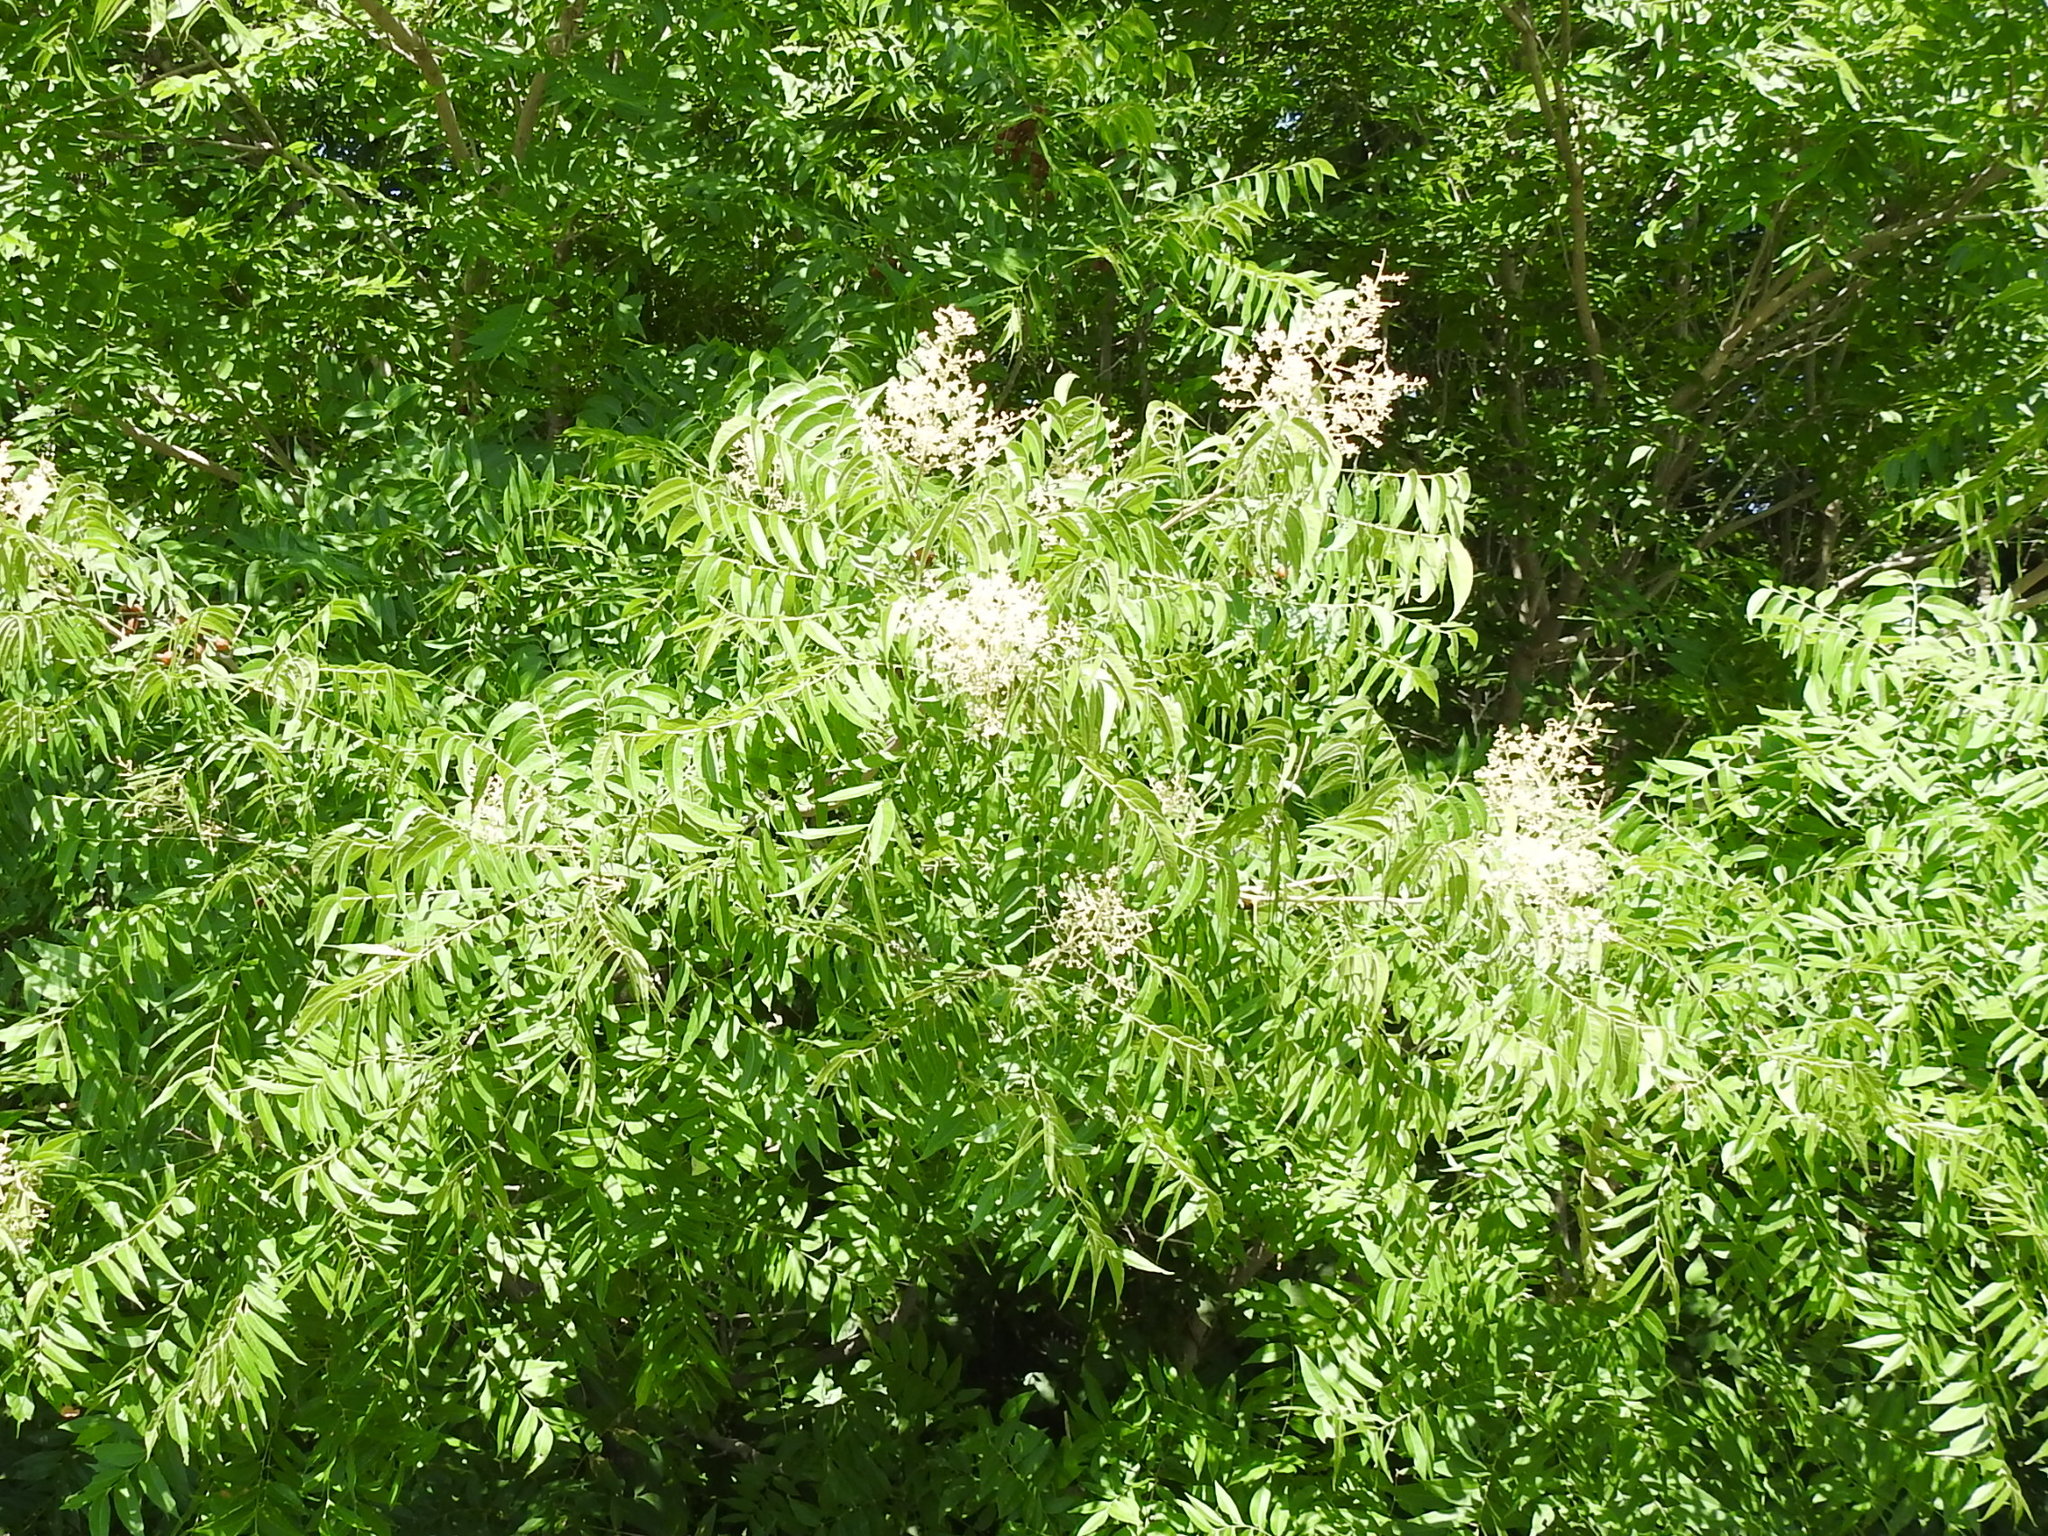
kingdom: Plantae
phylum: Tracheophyta
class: Magnoliopsida
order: Sapindales
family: Sapindaceae
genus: Sapindus
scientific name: Sapindus drummondii
